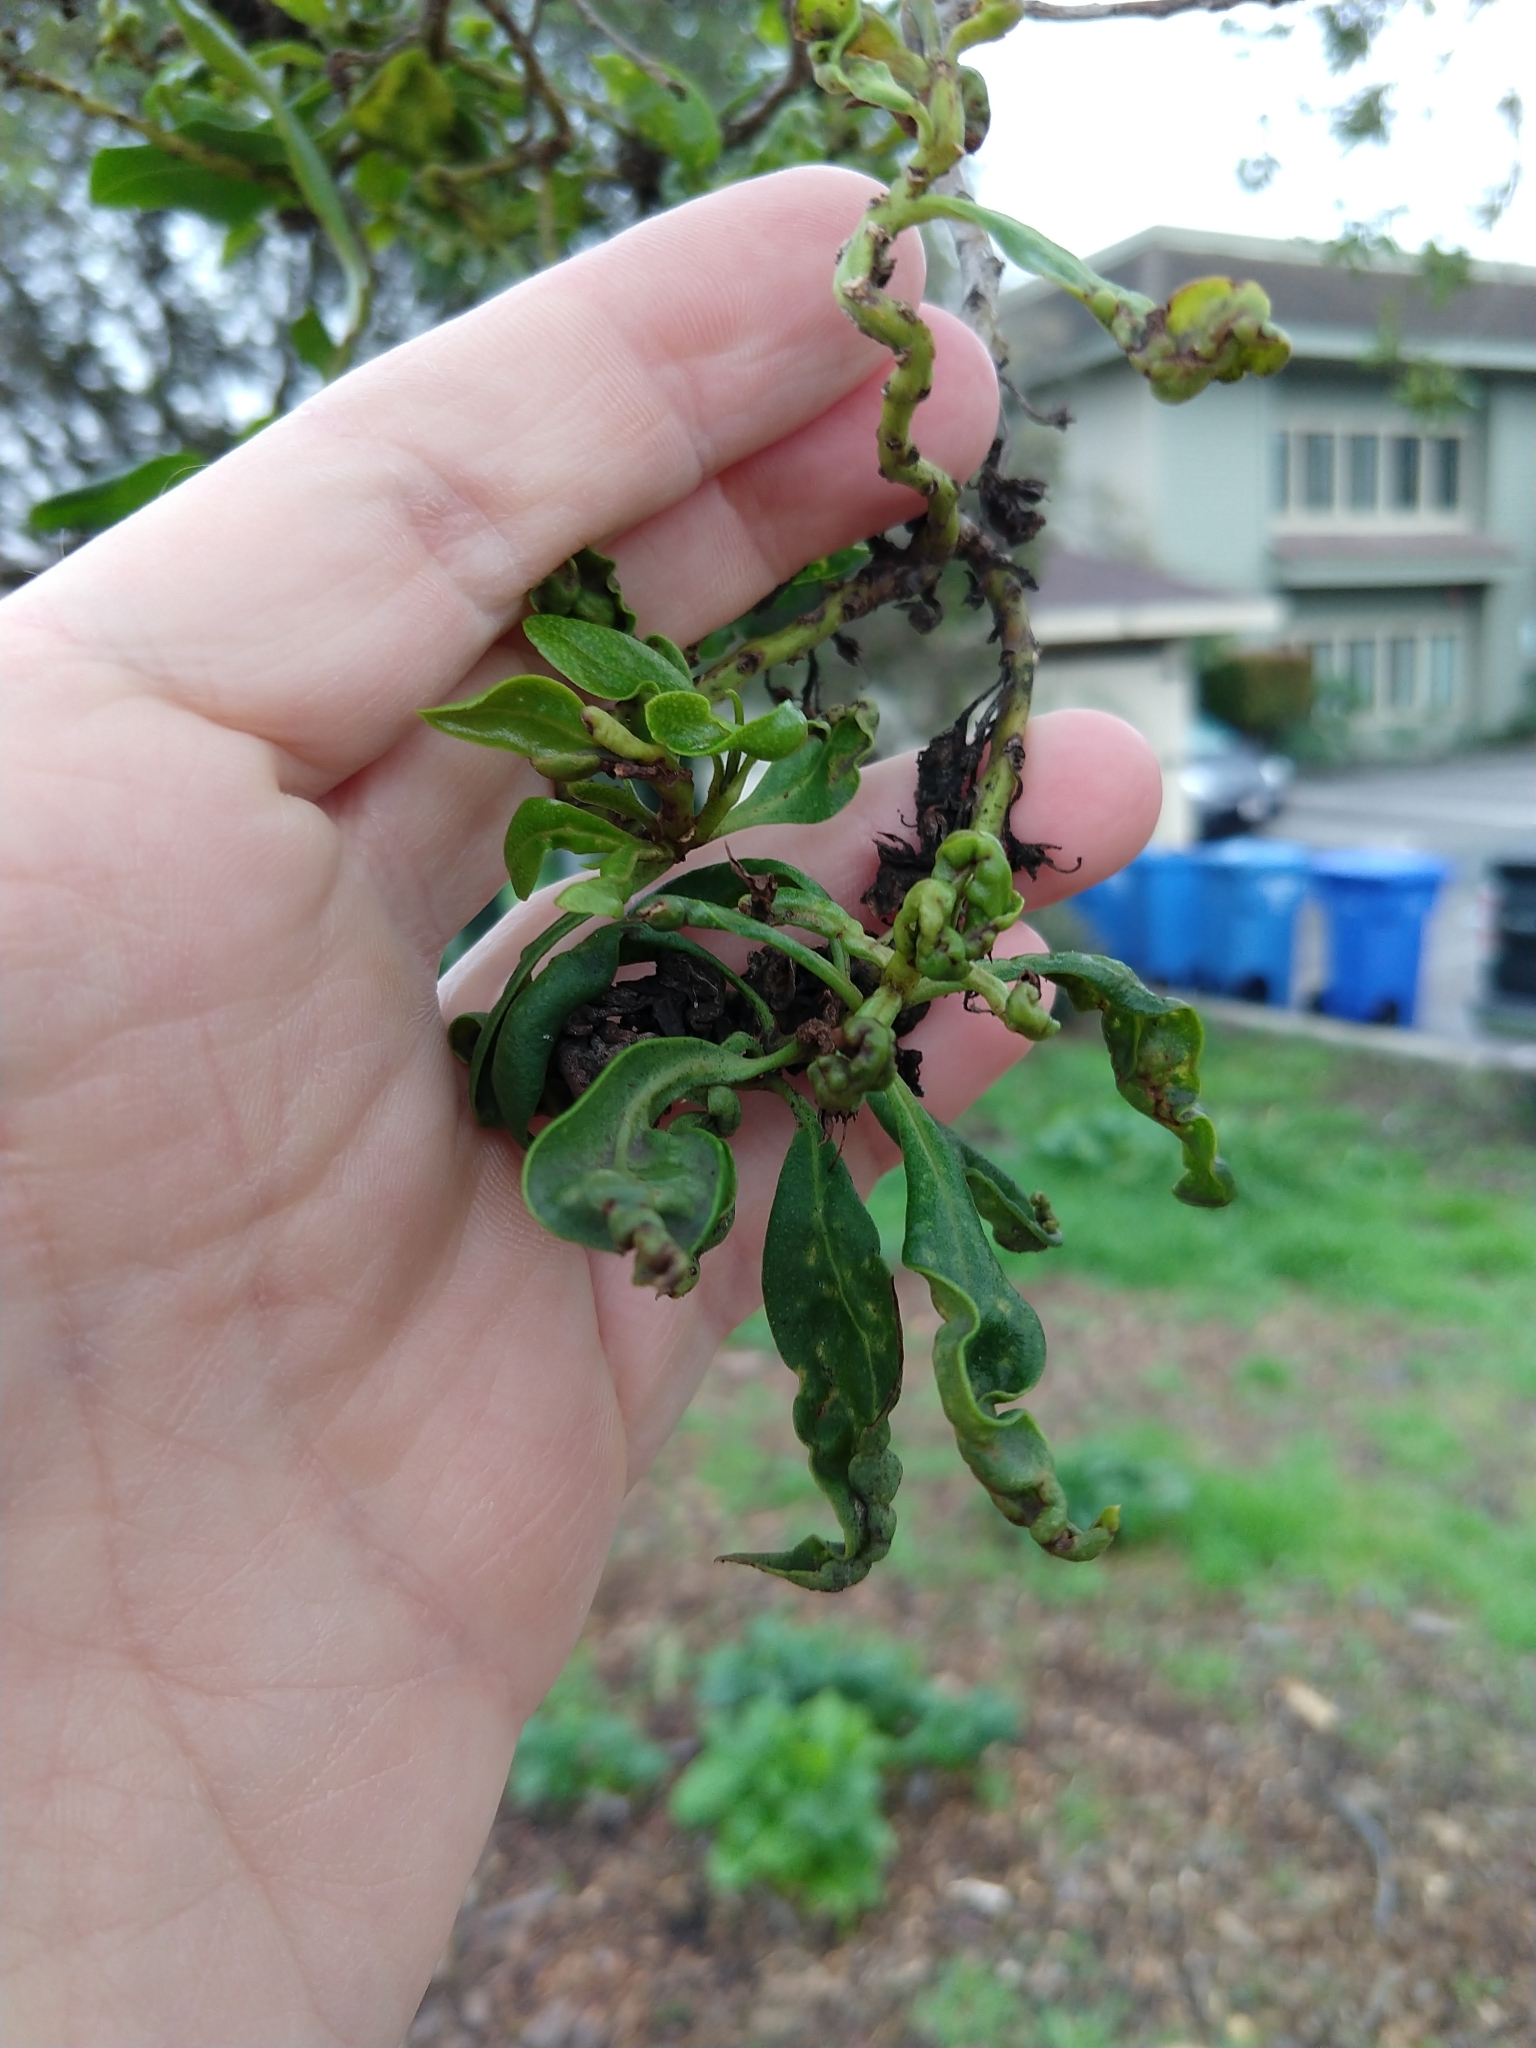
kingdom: Animalia
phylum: Arthropoda
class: Insecta
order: Thysanoptera
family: Phlaeothripidae
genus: Klambothrips
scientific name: Klambothrips myopori
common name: Myoporum thrips
